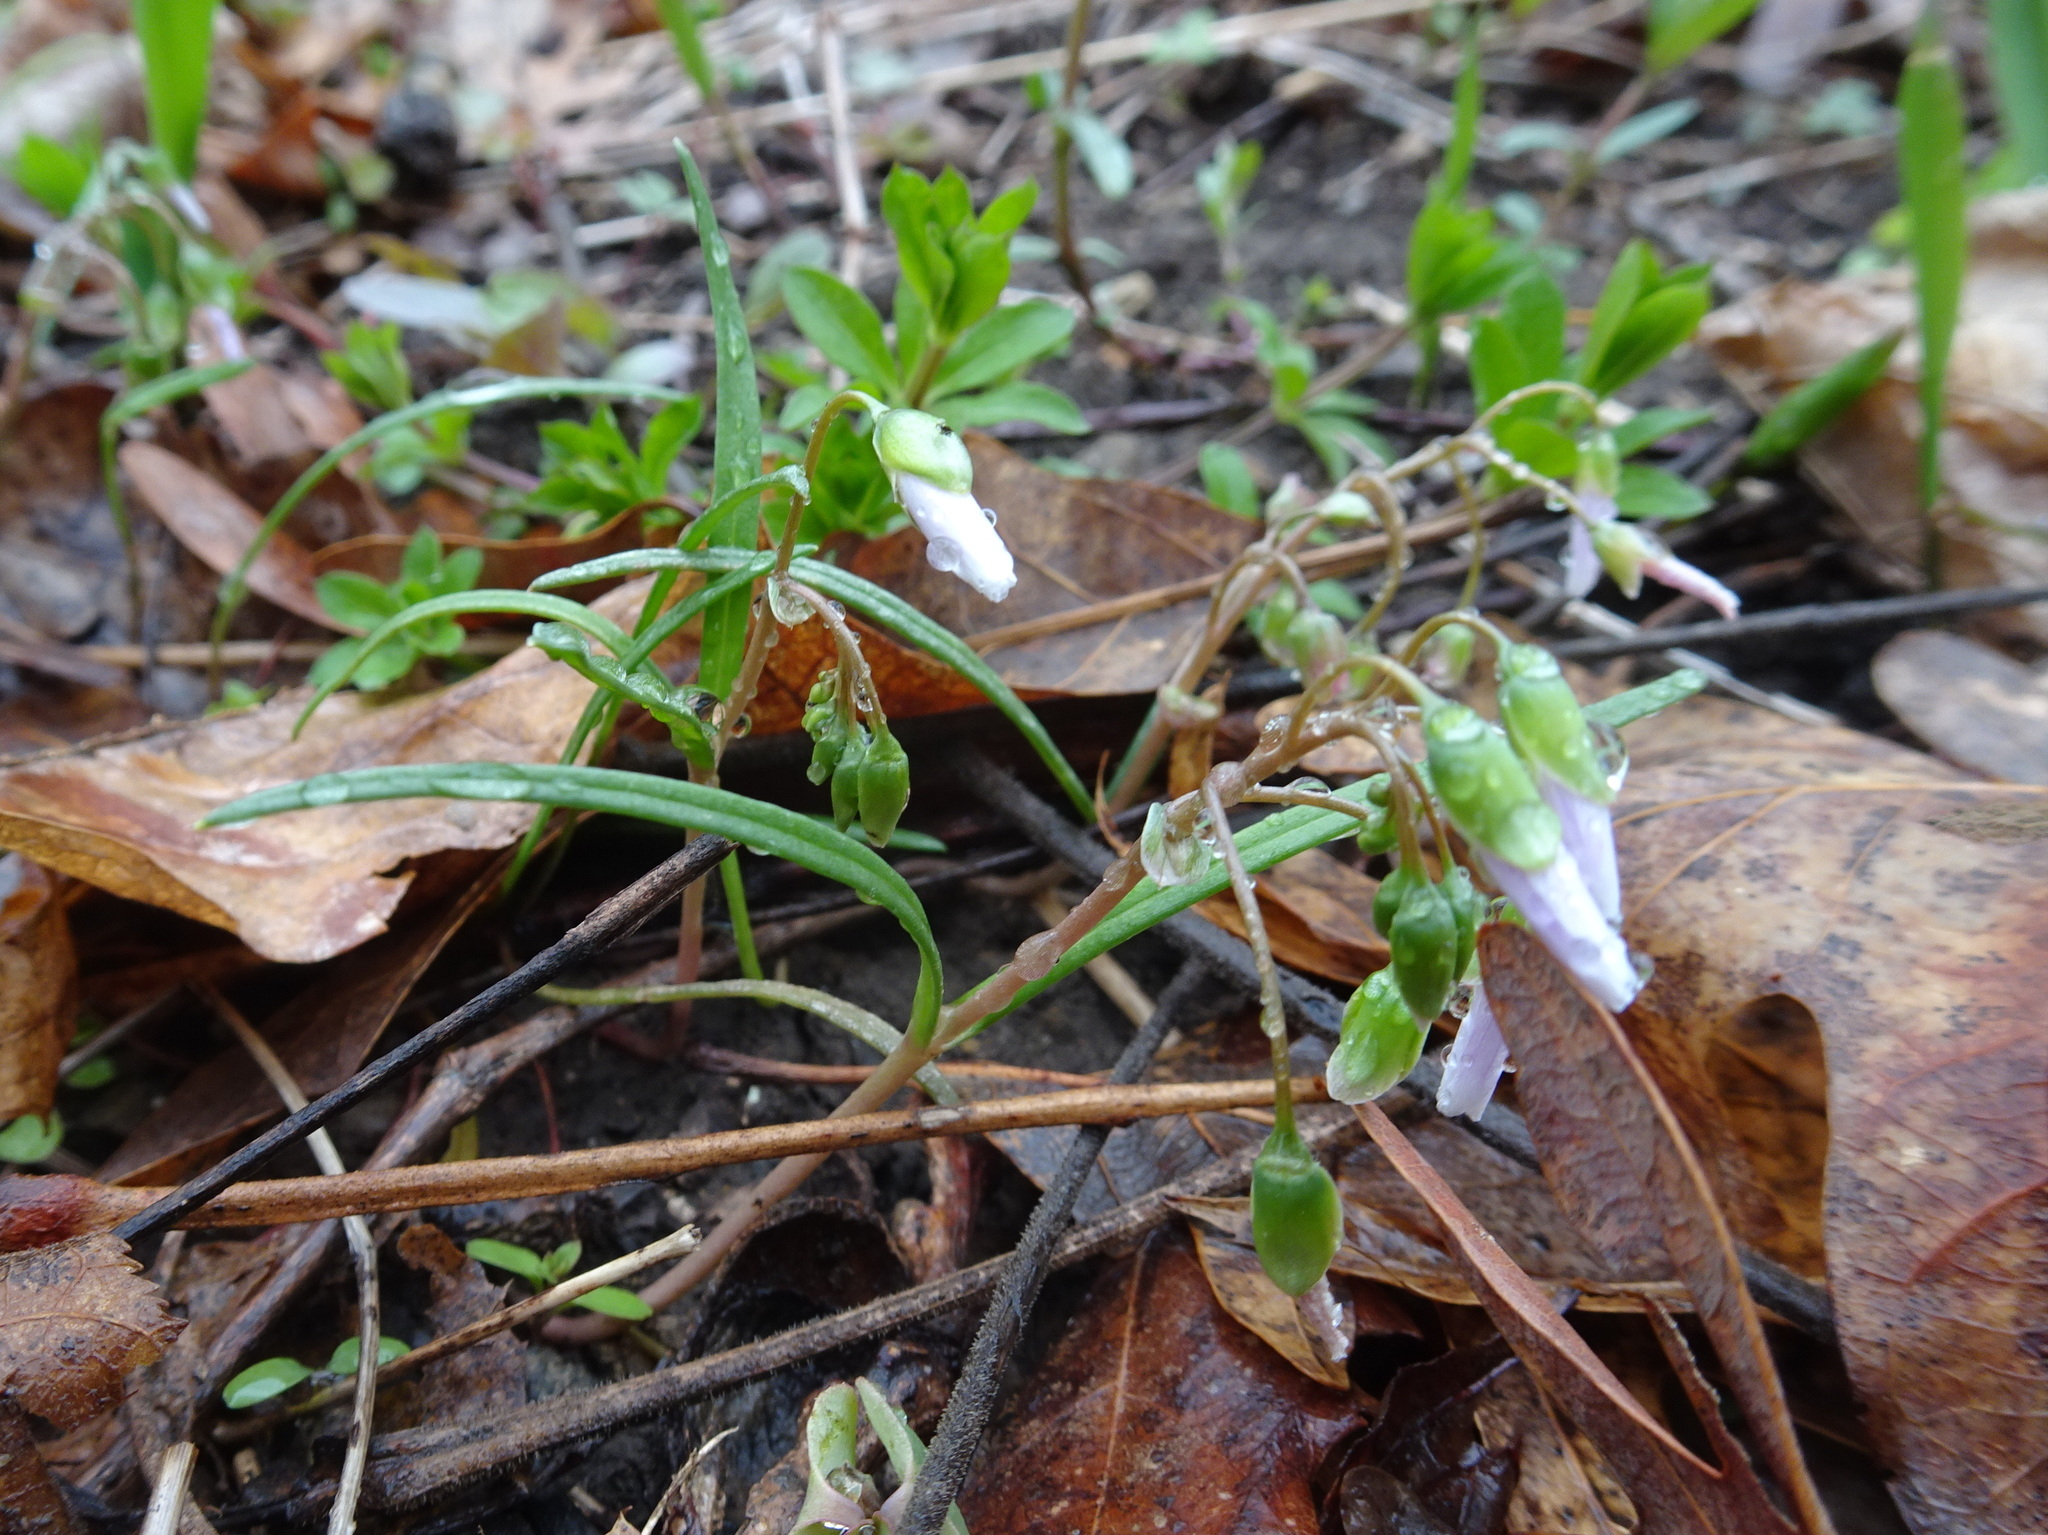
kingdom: Plantae
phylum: Tracheophyta
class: Magnoliopsida
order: Caryophyllales
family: Montiaceae
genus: Claytonia
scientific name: Claytonia virginica
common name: Virginia springbeauty
